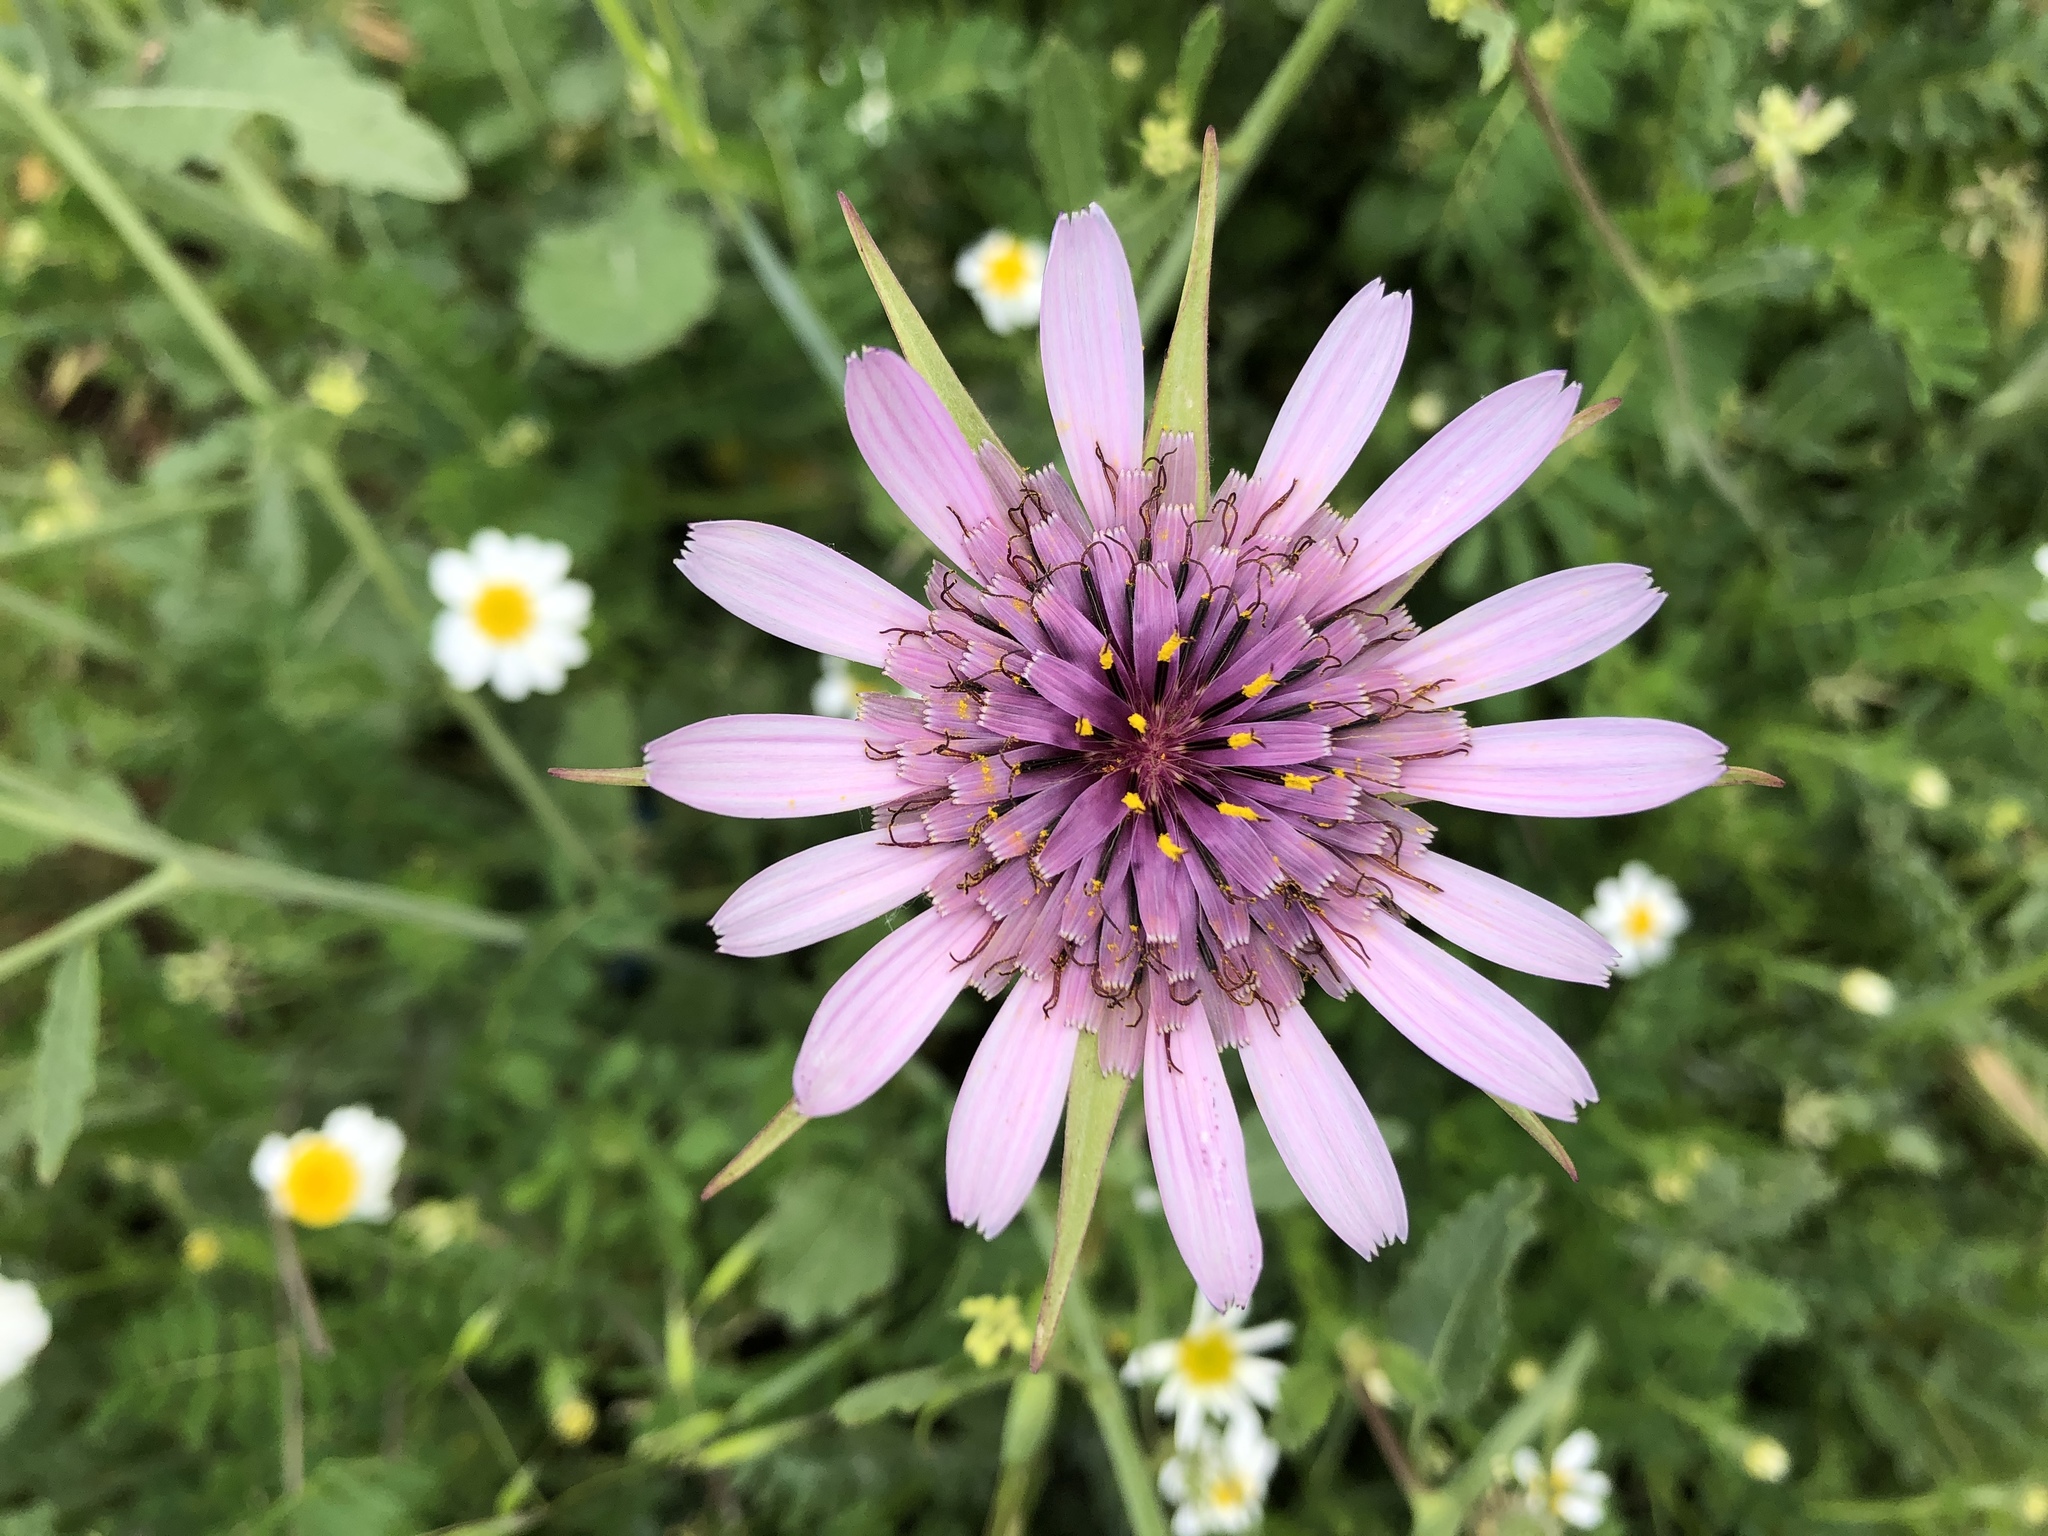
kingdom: Plantae
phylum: Tracheophyta
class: Magnoliopsida
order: Asterales
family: Asteraceae
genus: Tragopogon
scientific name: Tragopogon porrifolius
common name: Salsify
